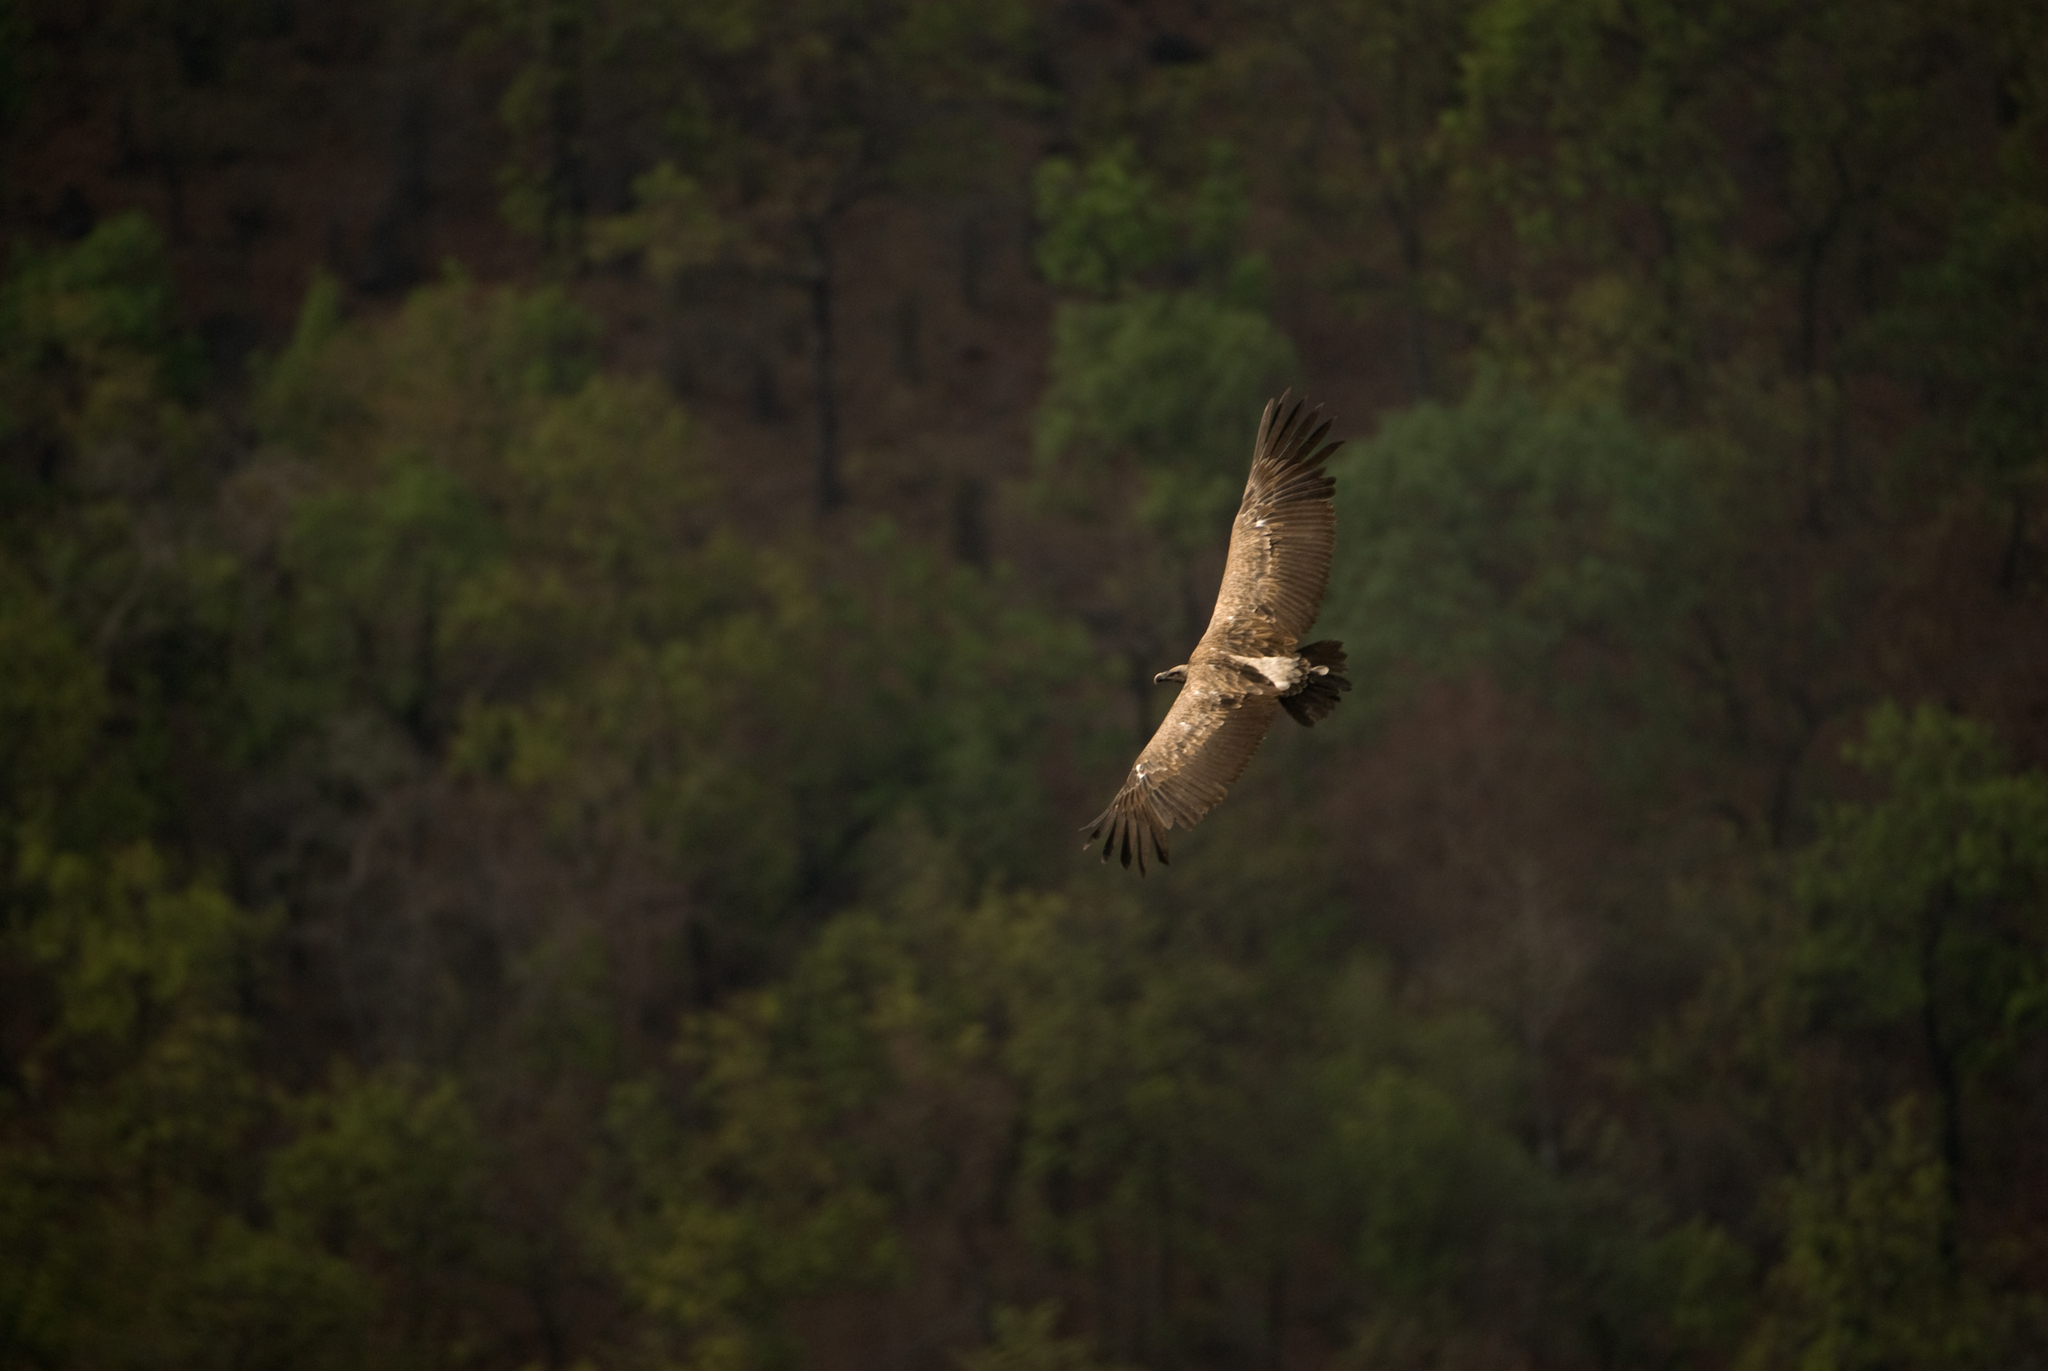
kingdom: Animalia
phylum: Chordata
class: Aves
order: Accipitriformes
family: Accipitridae
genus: Gyps
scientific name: Gyps indicus
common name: Indian vulture
